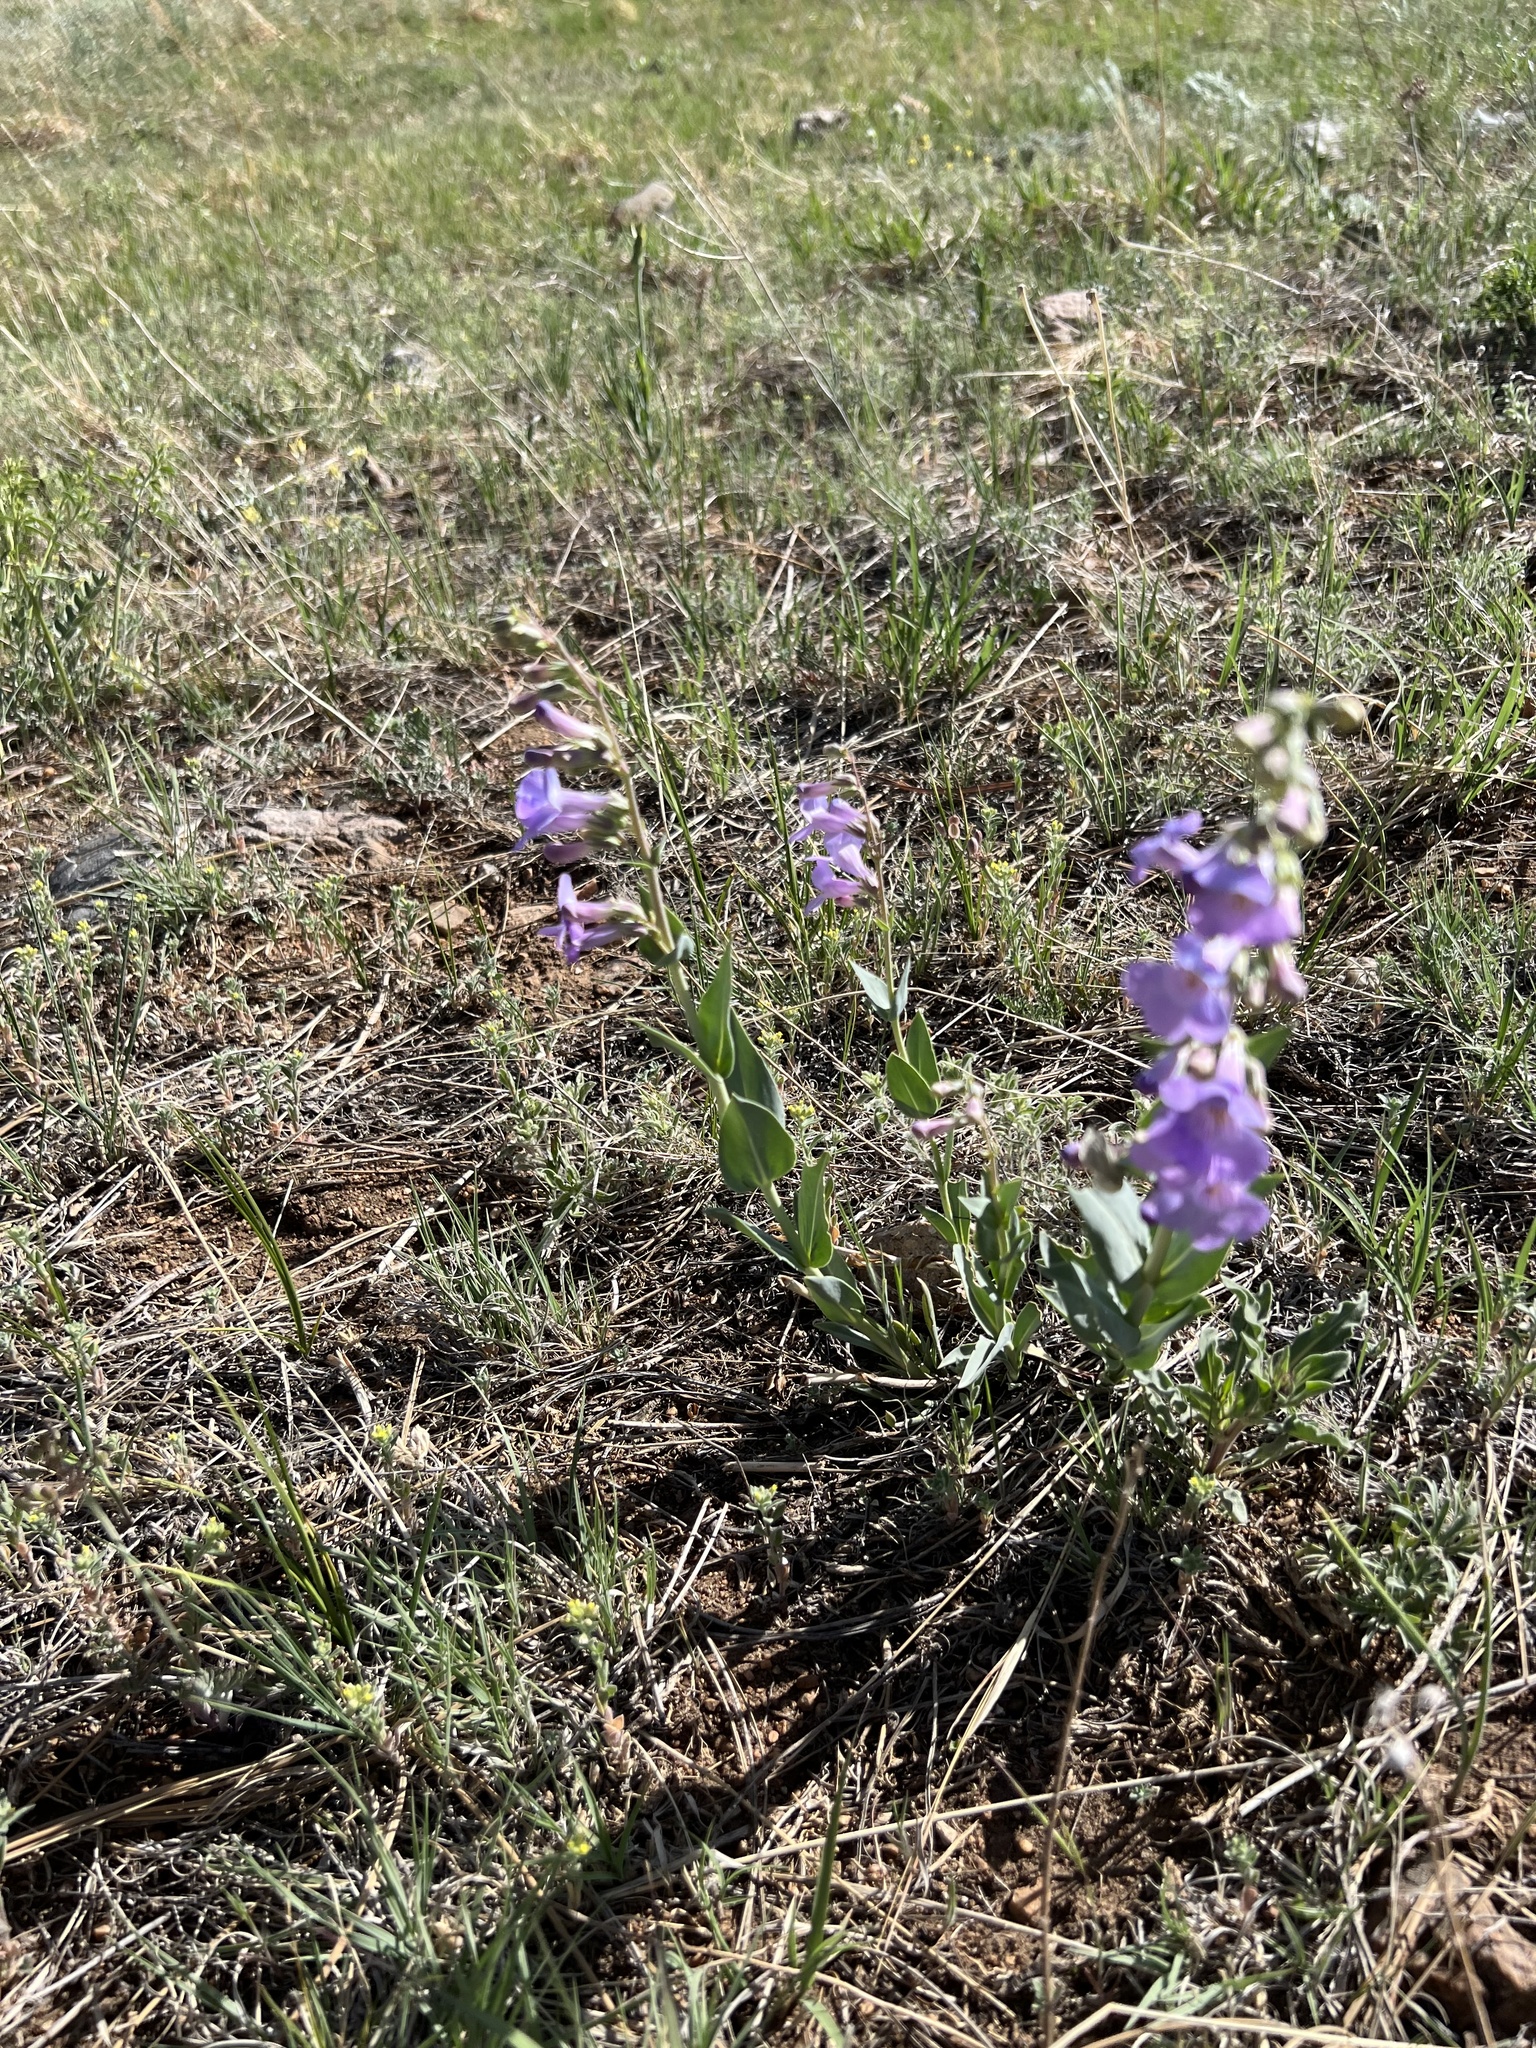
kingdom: Plantae
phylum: Tracheophyta
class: Magnoliopsida
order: Lamiales
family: Plantaginaceae
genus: Penstemon
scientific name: Penstemon secundiflorus
